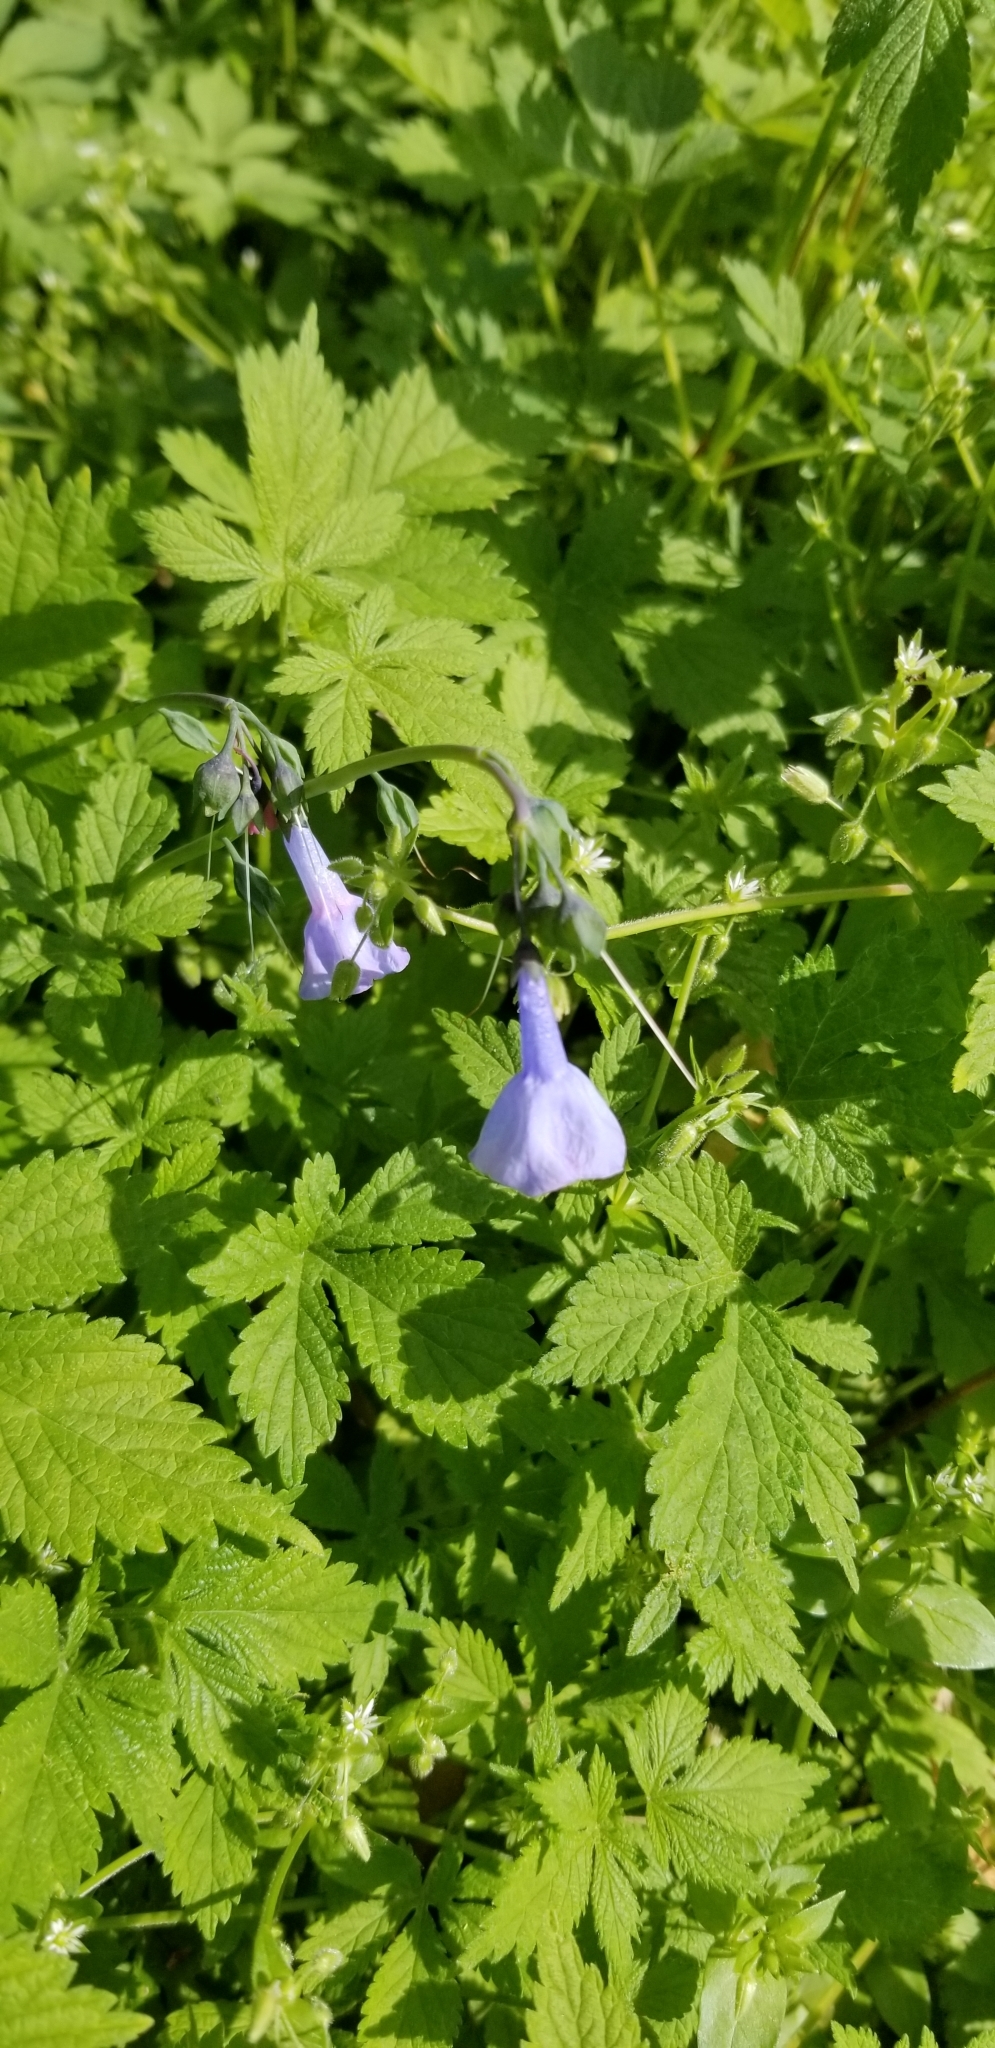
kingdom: Plantae
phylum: Tracheophyta
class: Magnoliopsida
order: Boraginales
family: Boraginaceae
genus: Mertensia
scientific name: Mertensia virginica
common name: Virginia bluebells
